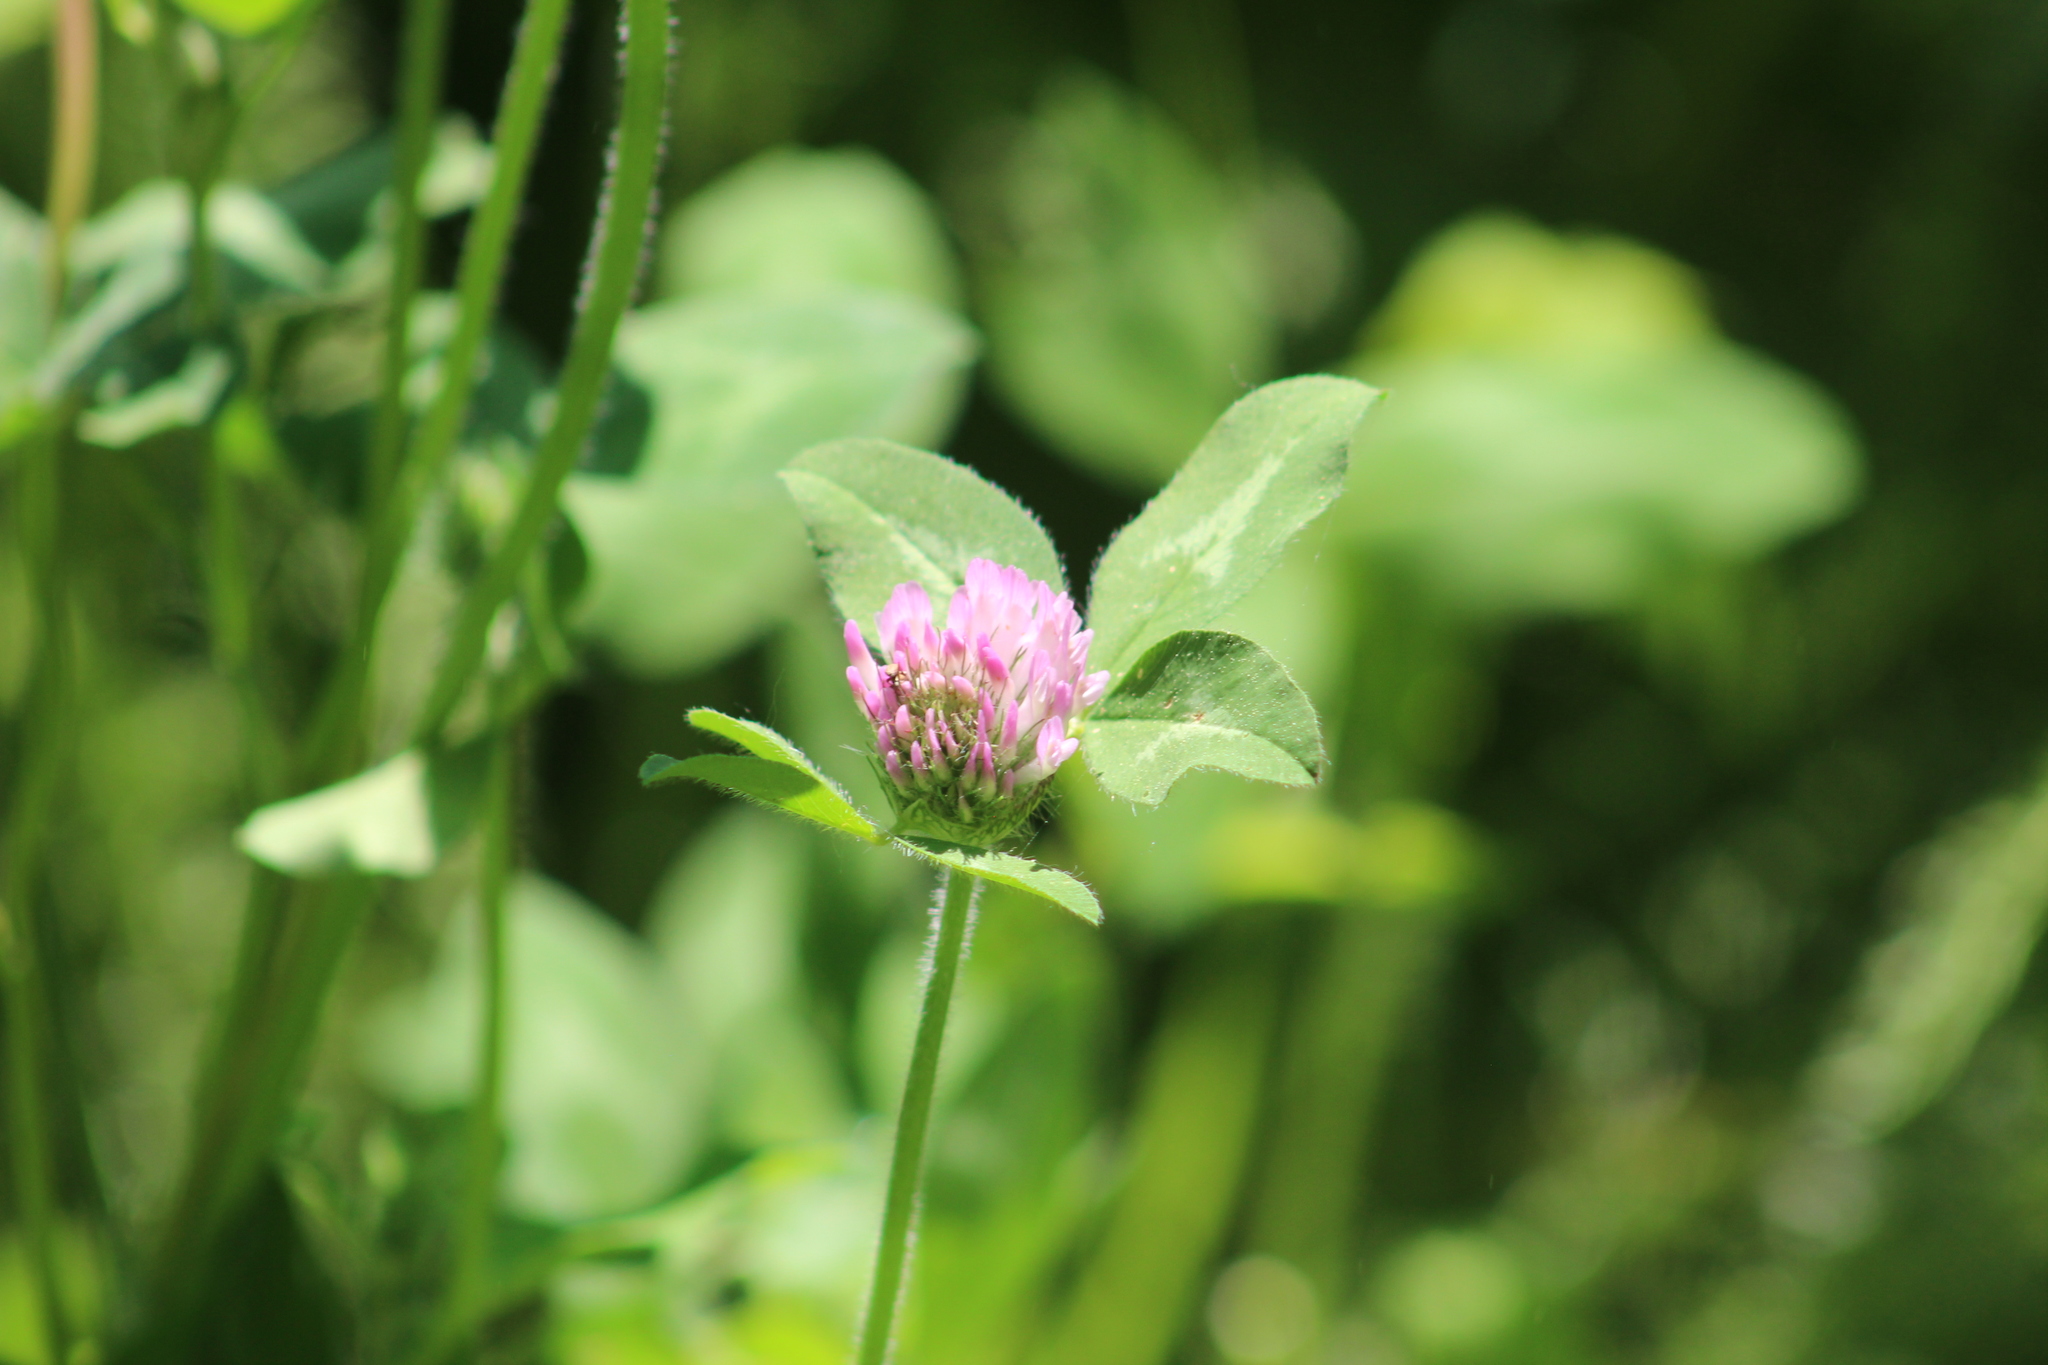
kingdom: Plantae
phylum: Tracheophyta
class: Magnoliopsida
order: Fabales
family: Fabaceae
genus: Trifolium
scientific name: Trifolium pratense
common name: Red clover
